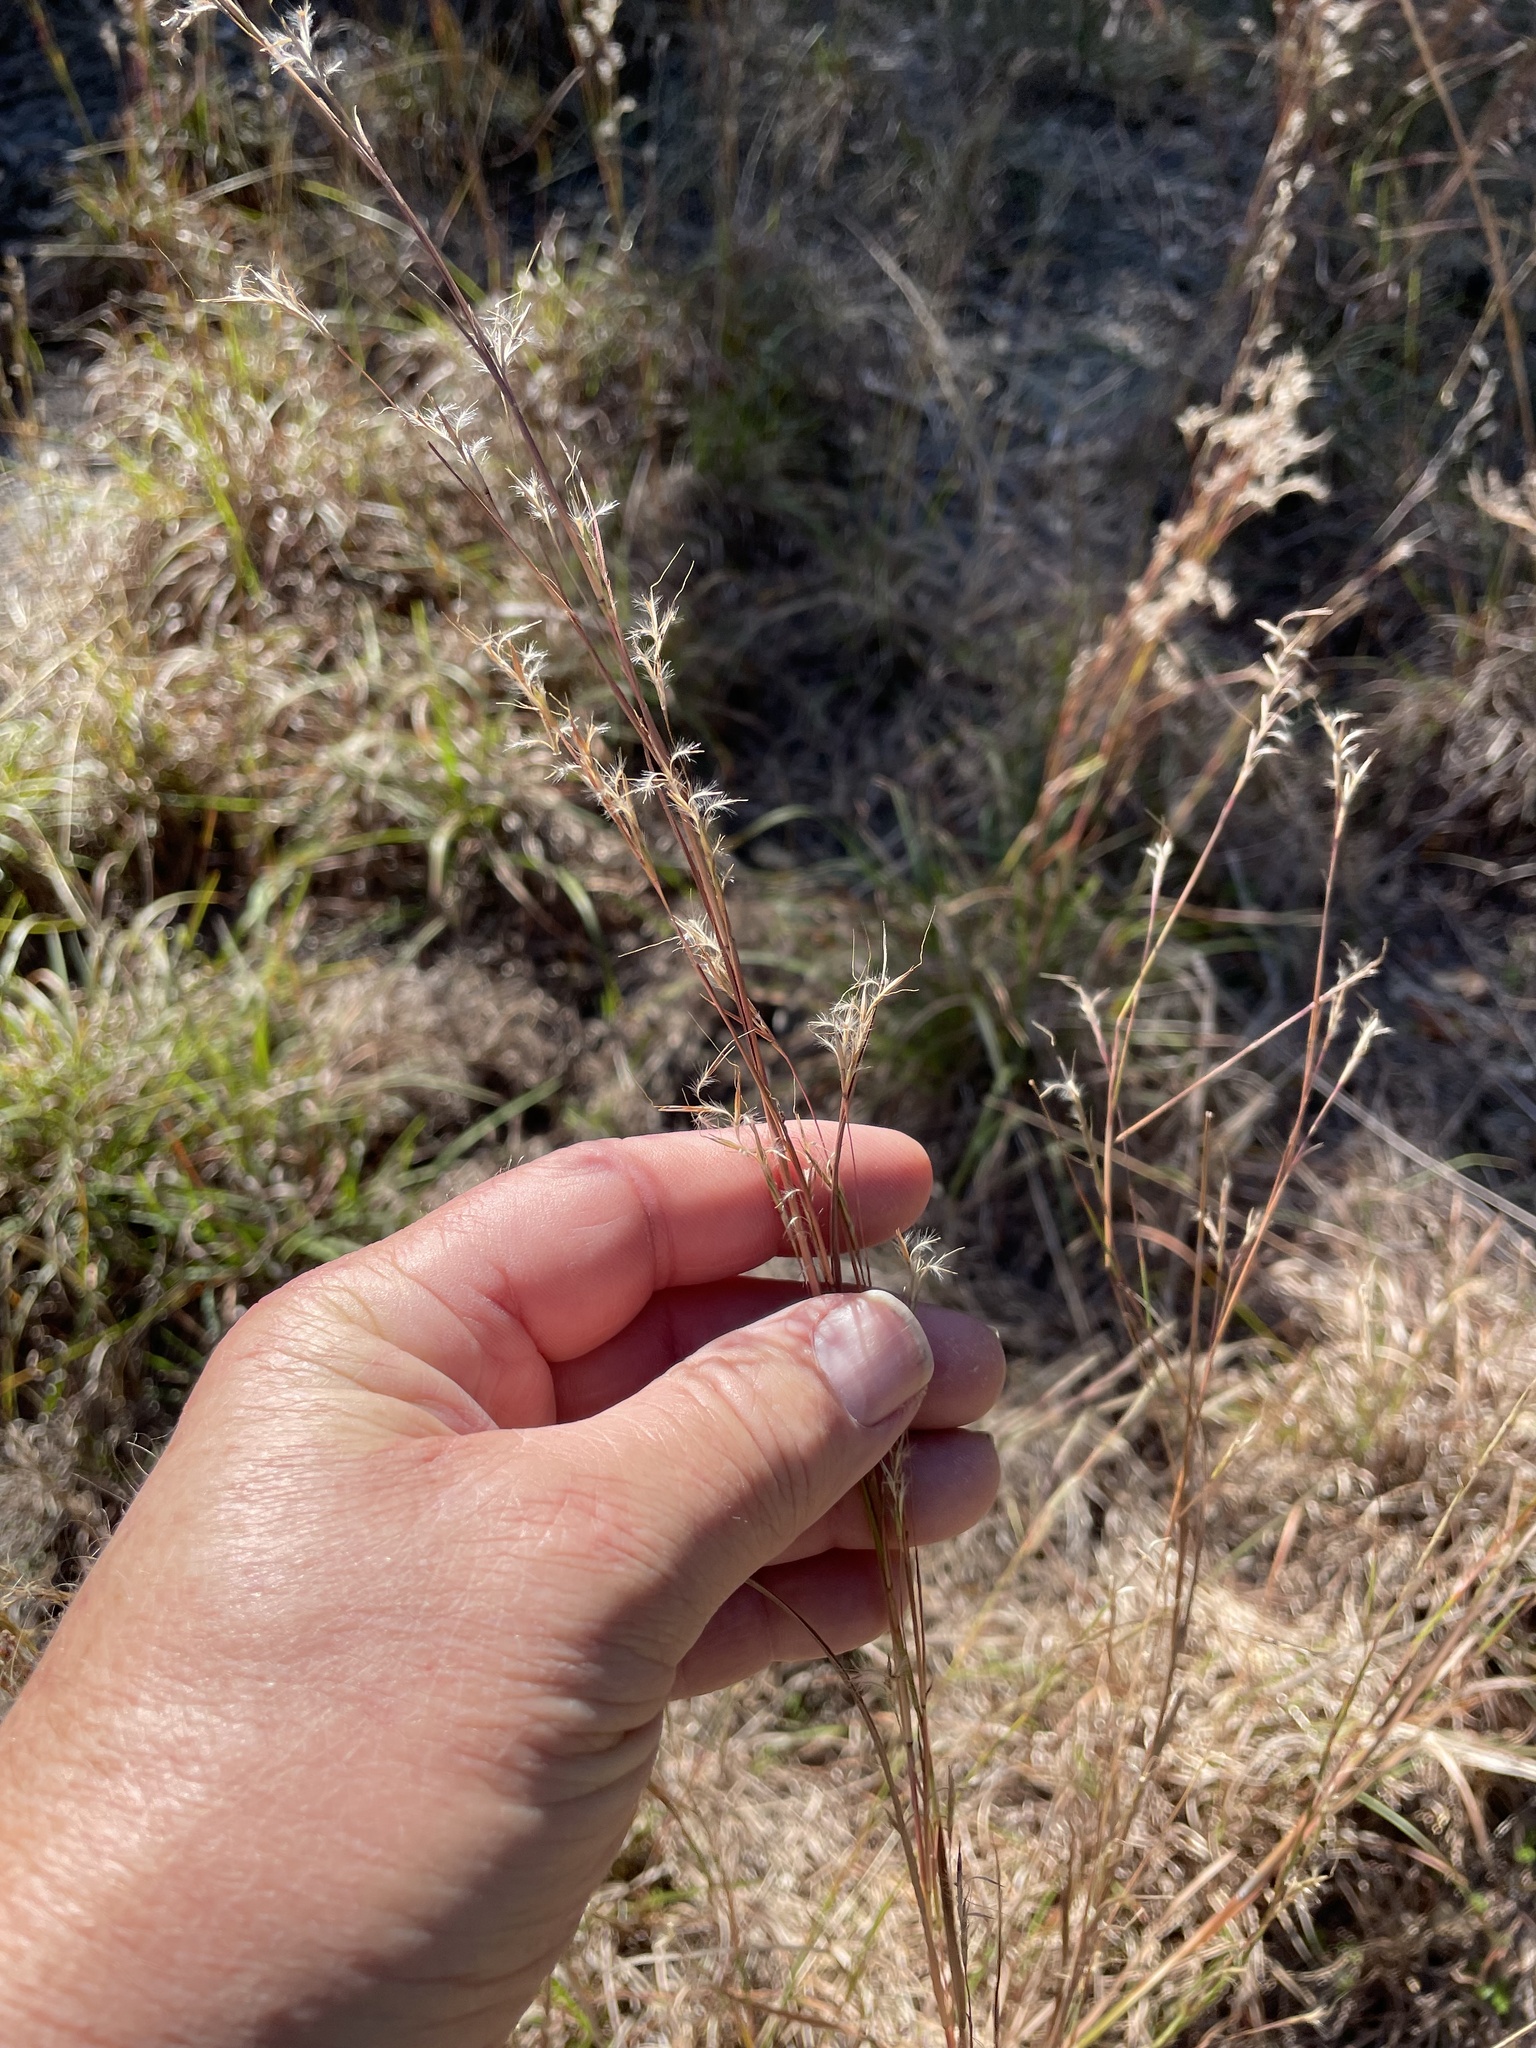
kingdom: Plantae
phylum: Tracheophyta
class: Liliopsida
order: Poales
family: Poaceae
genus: Schizachyrium
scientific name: Schizachyrium scoparium
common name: Little bluestem
